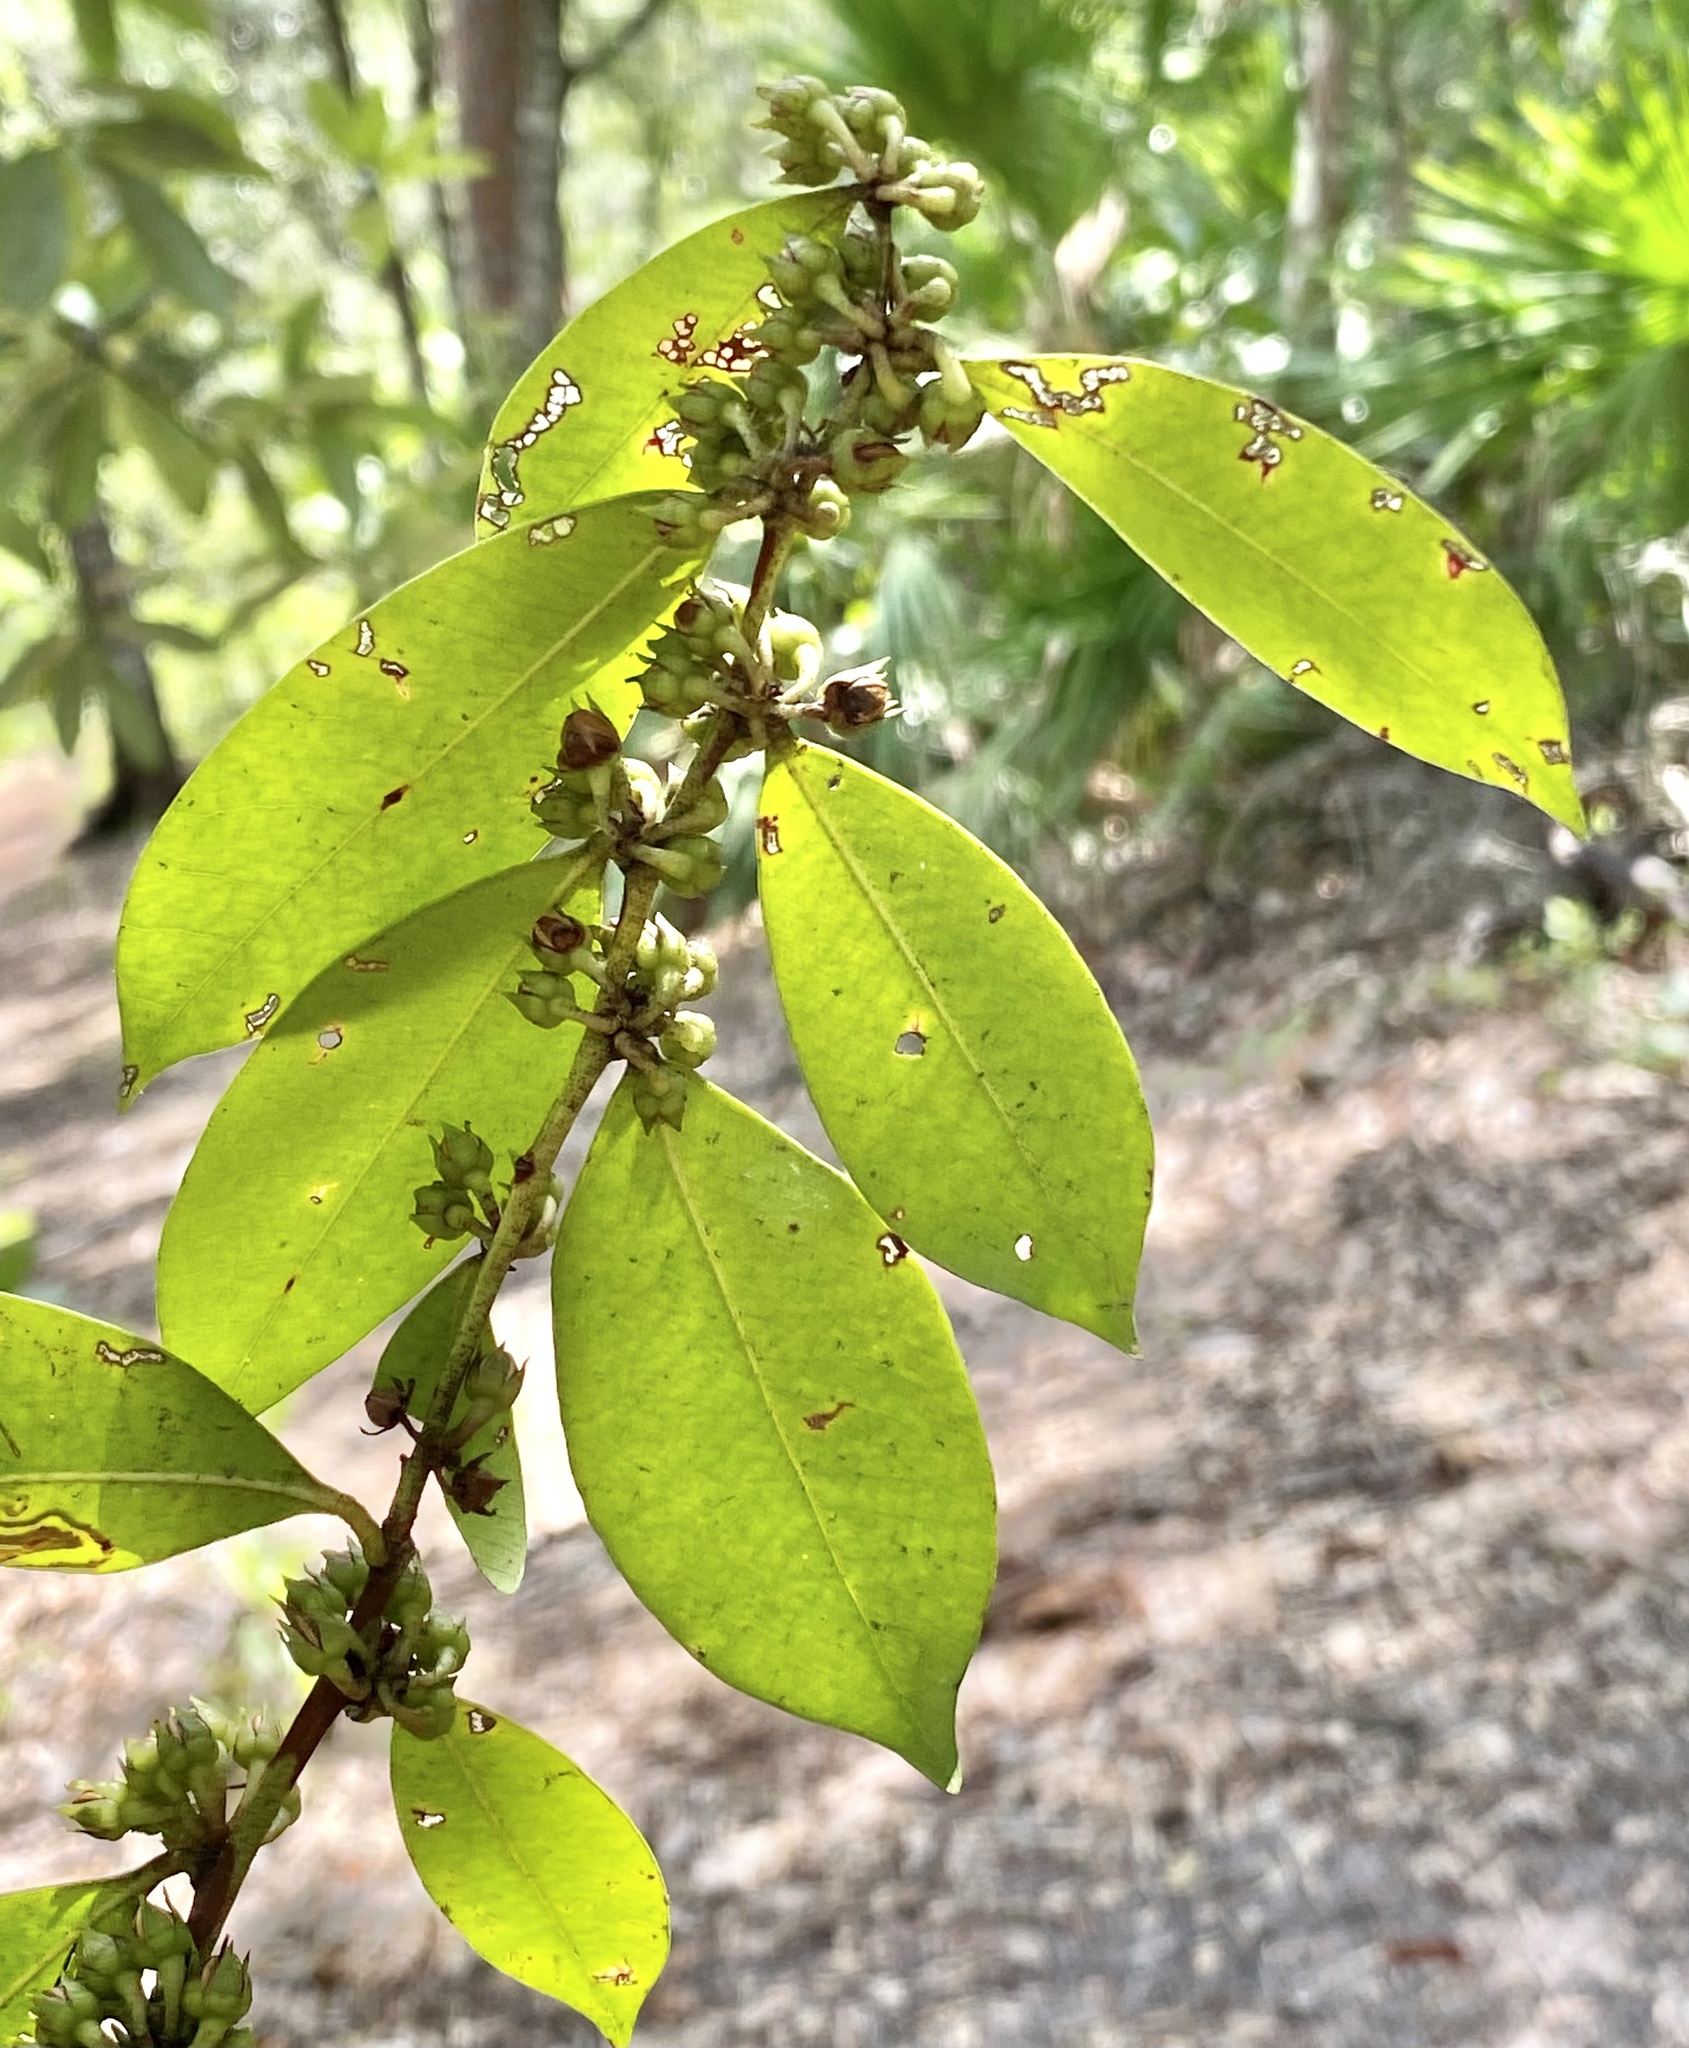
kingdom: Plantae
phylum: Tracheophyta
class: Magnoliopsida
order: Ericales
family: Ericaceae
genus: Lyonia
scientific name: Lyonia lucida
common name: Fetterbush
